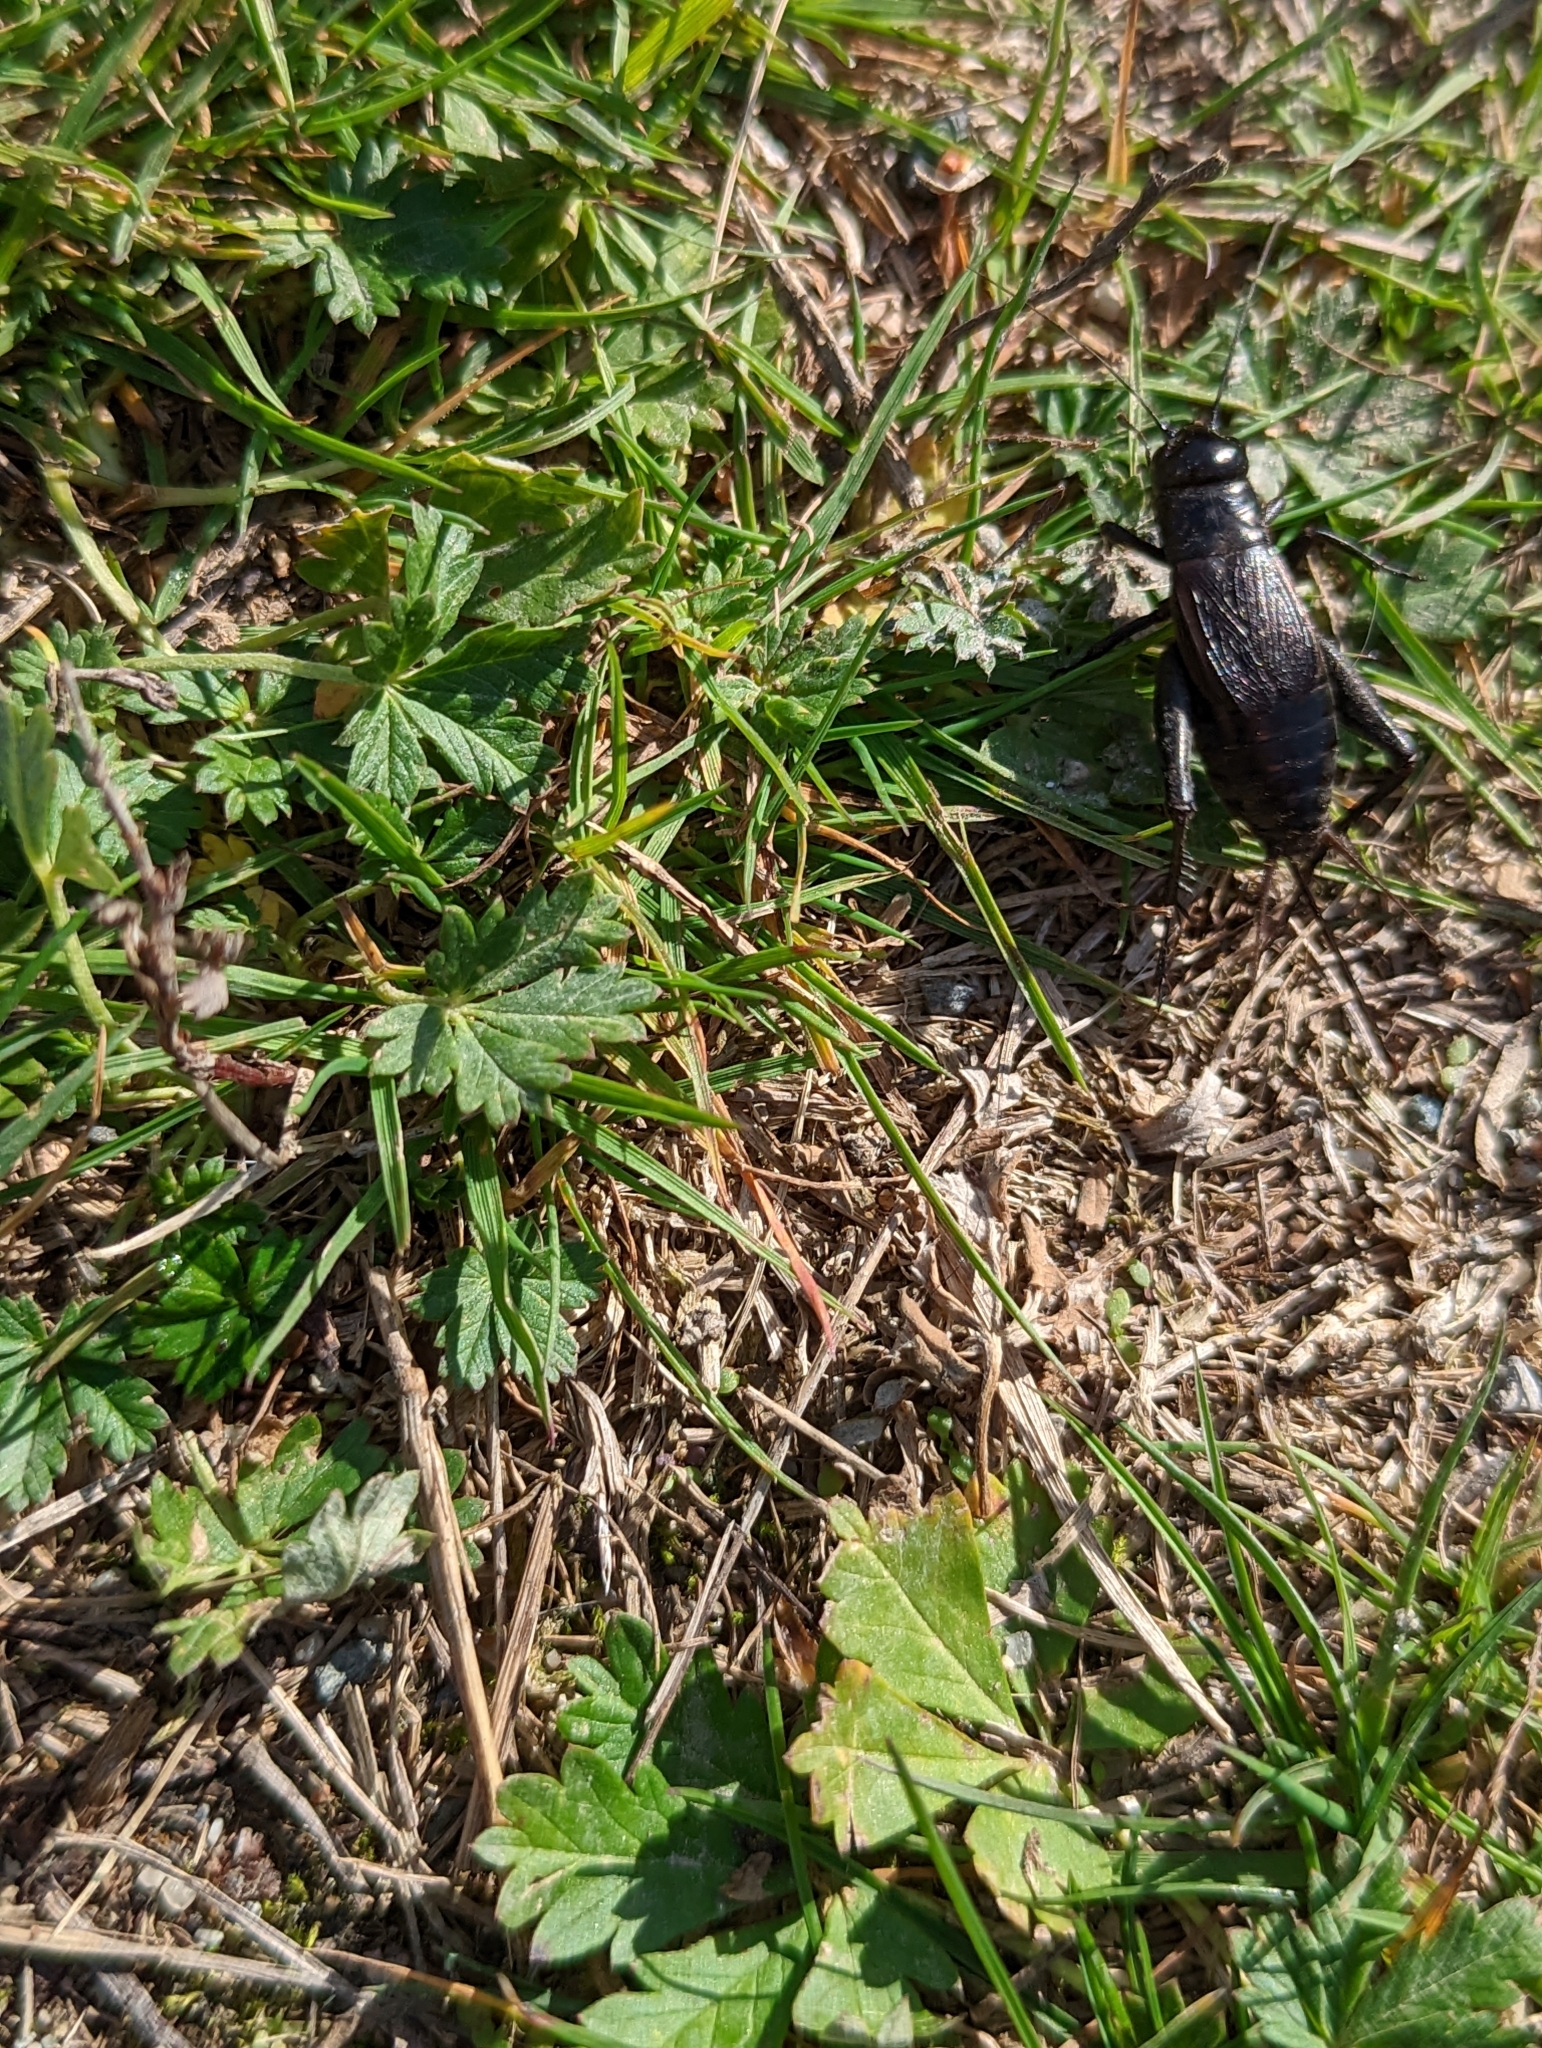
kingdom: Animalia
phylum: Arthropoda
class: Insecta
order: Orthoptera
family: Gryllidae
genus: Gryllus
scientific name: Gryllus pennsylvanicus
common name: Fall field cricket
